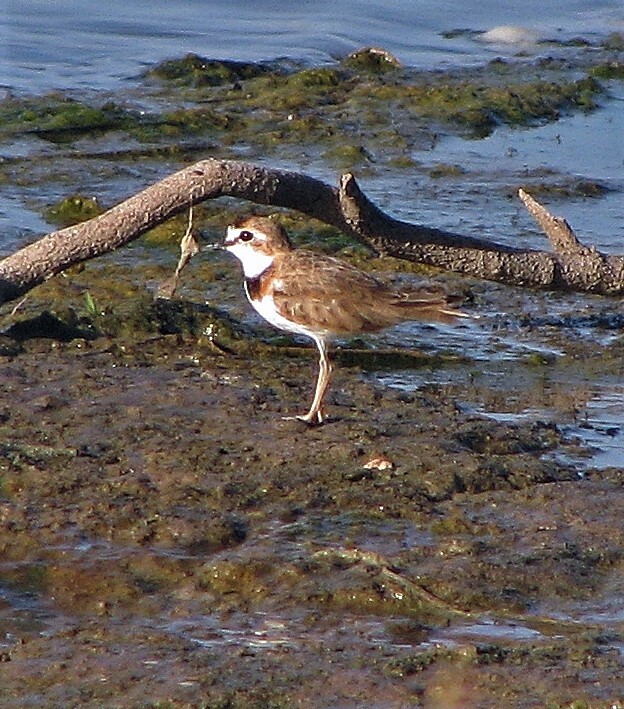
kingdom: Animalia
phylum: Chordata
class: Aves
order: Charadriiformes
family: Charadriidae
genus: Anarhynchus
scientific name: Anarhynchus
